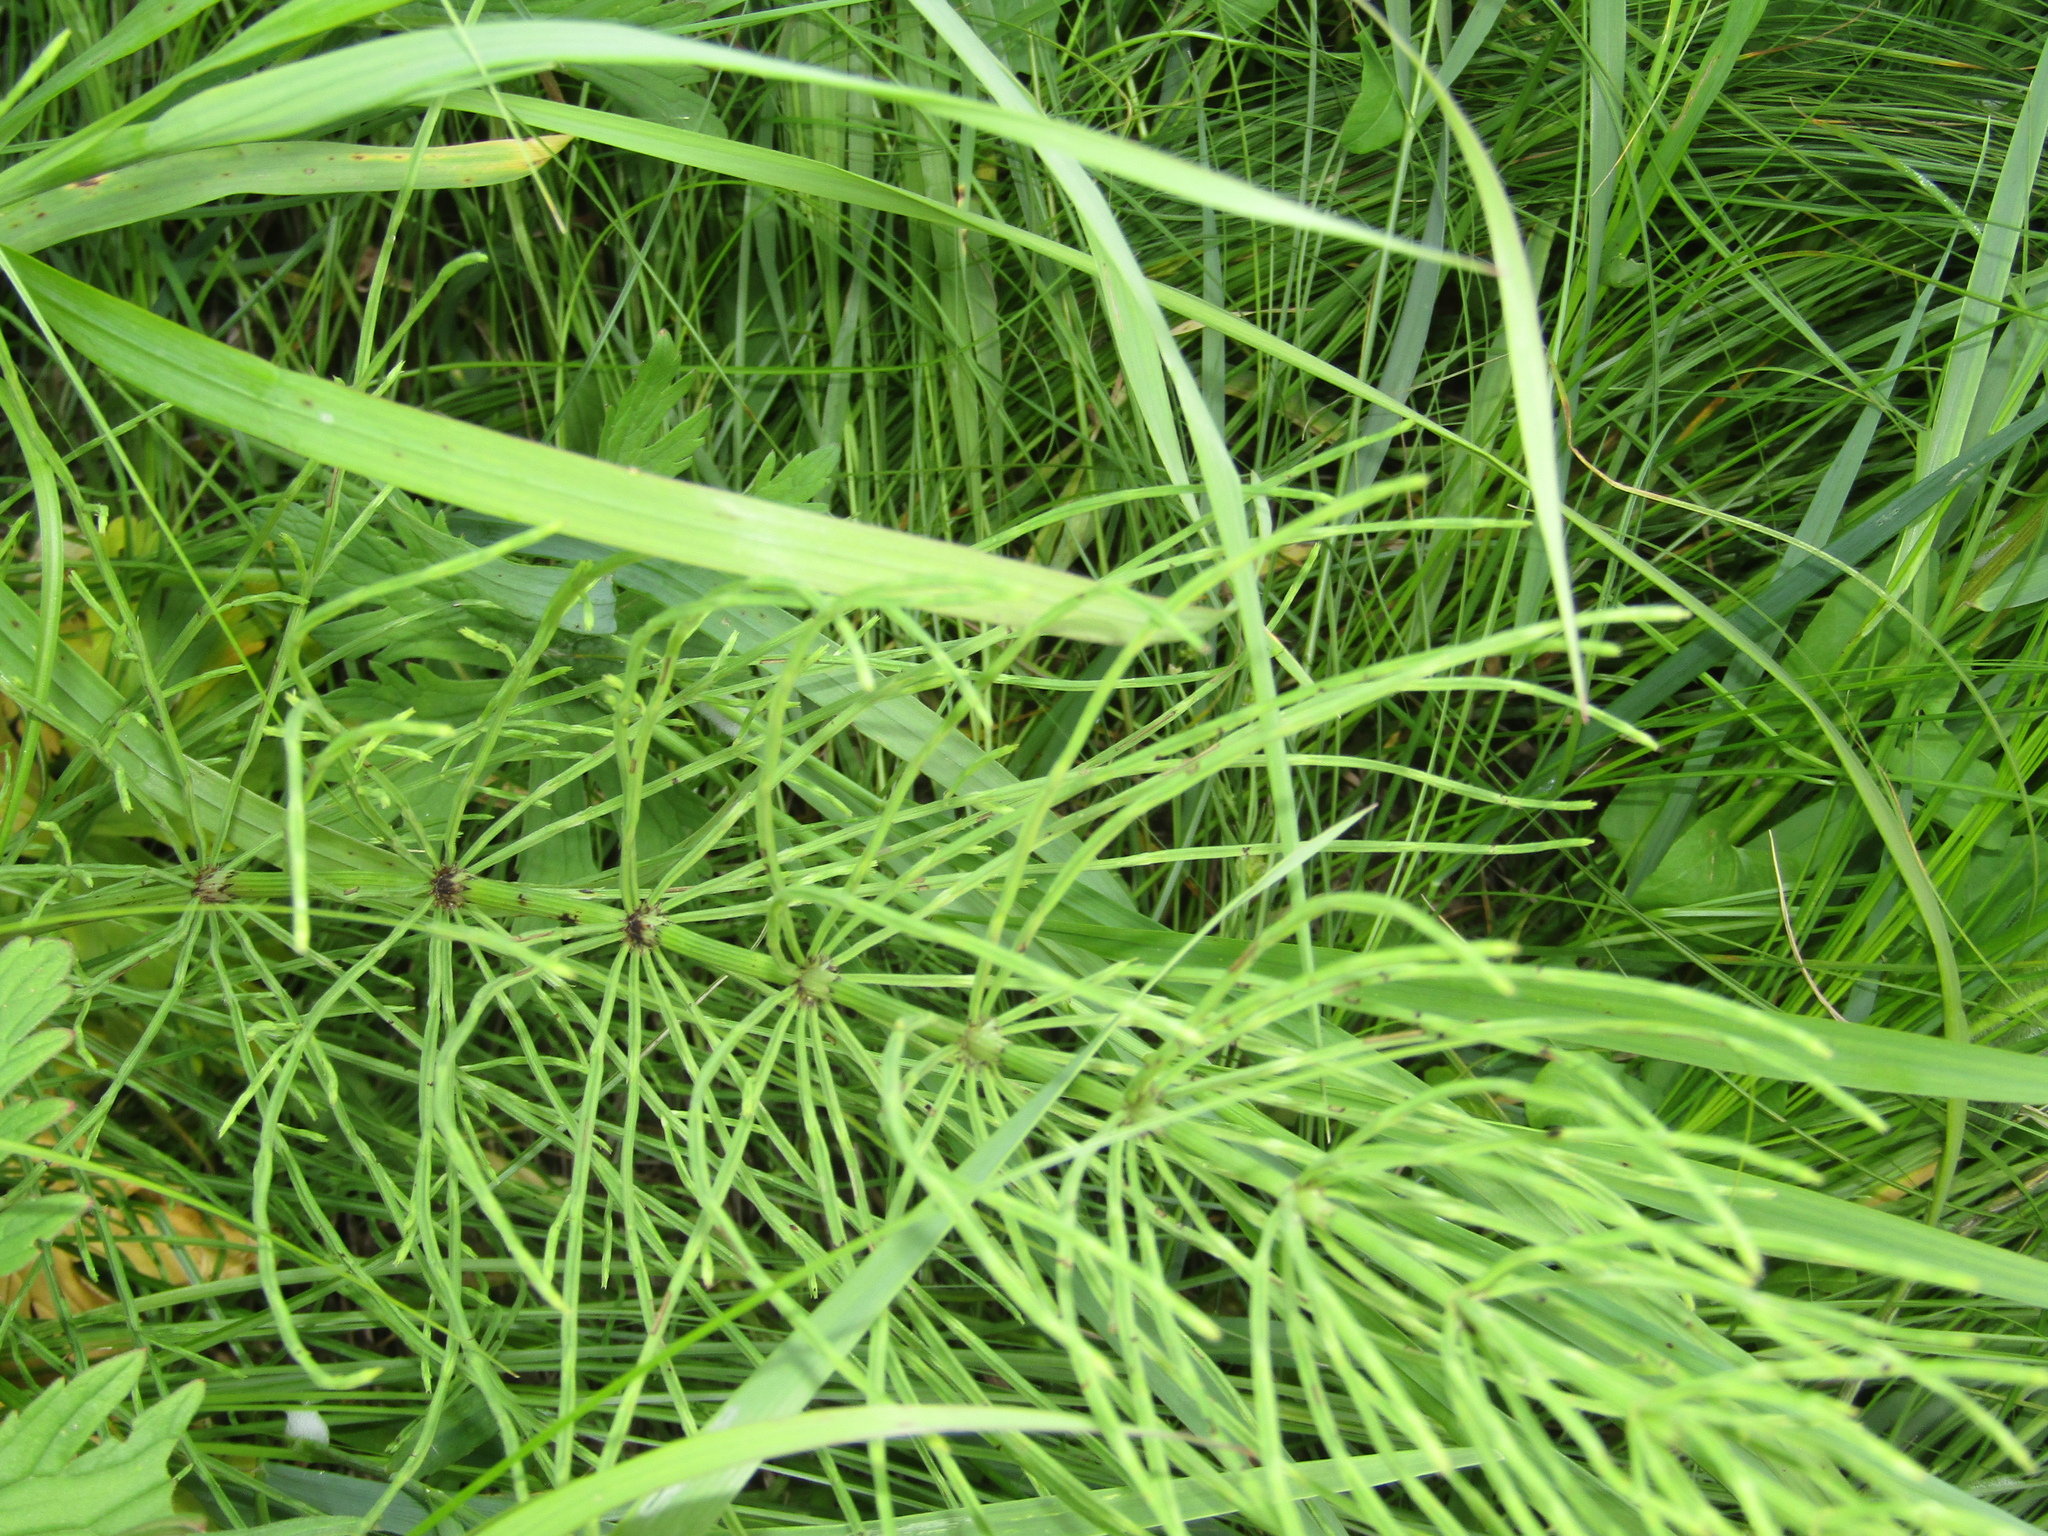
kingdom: Plantae
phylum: Tracheophyta
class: Polypodiopsida
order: Equisetales
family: Equisetaceae
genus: Equisetum
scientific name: Equisetum arvense
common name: Field horsetail
